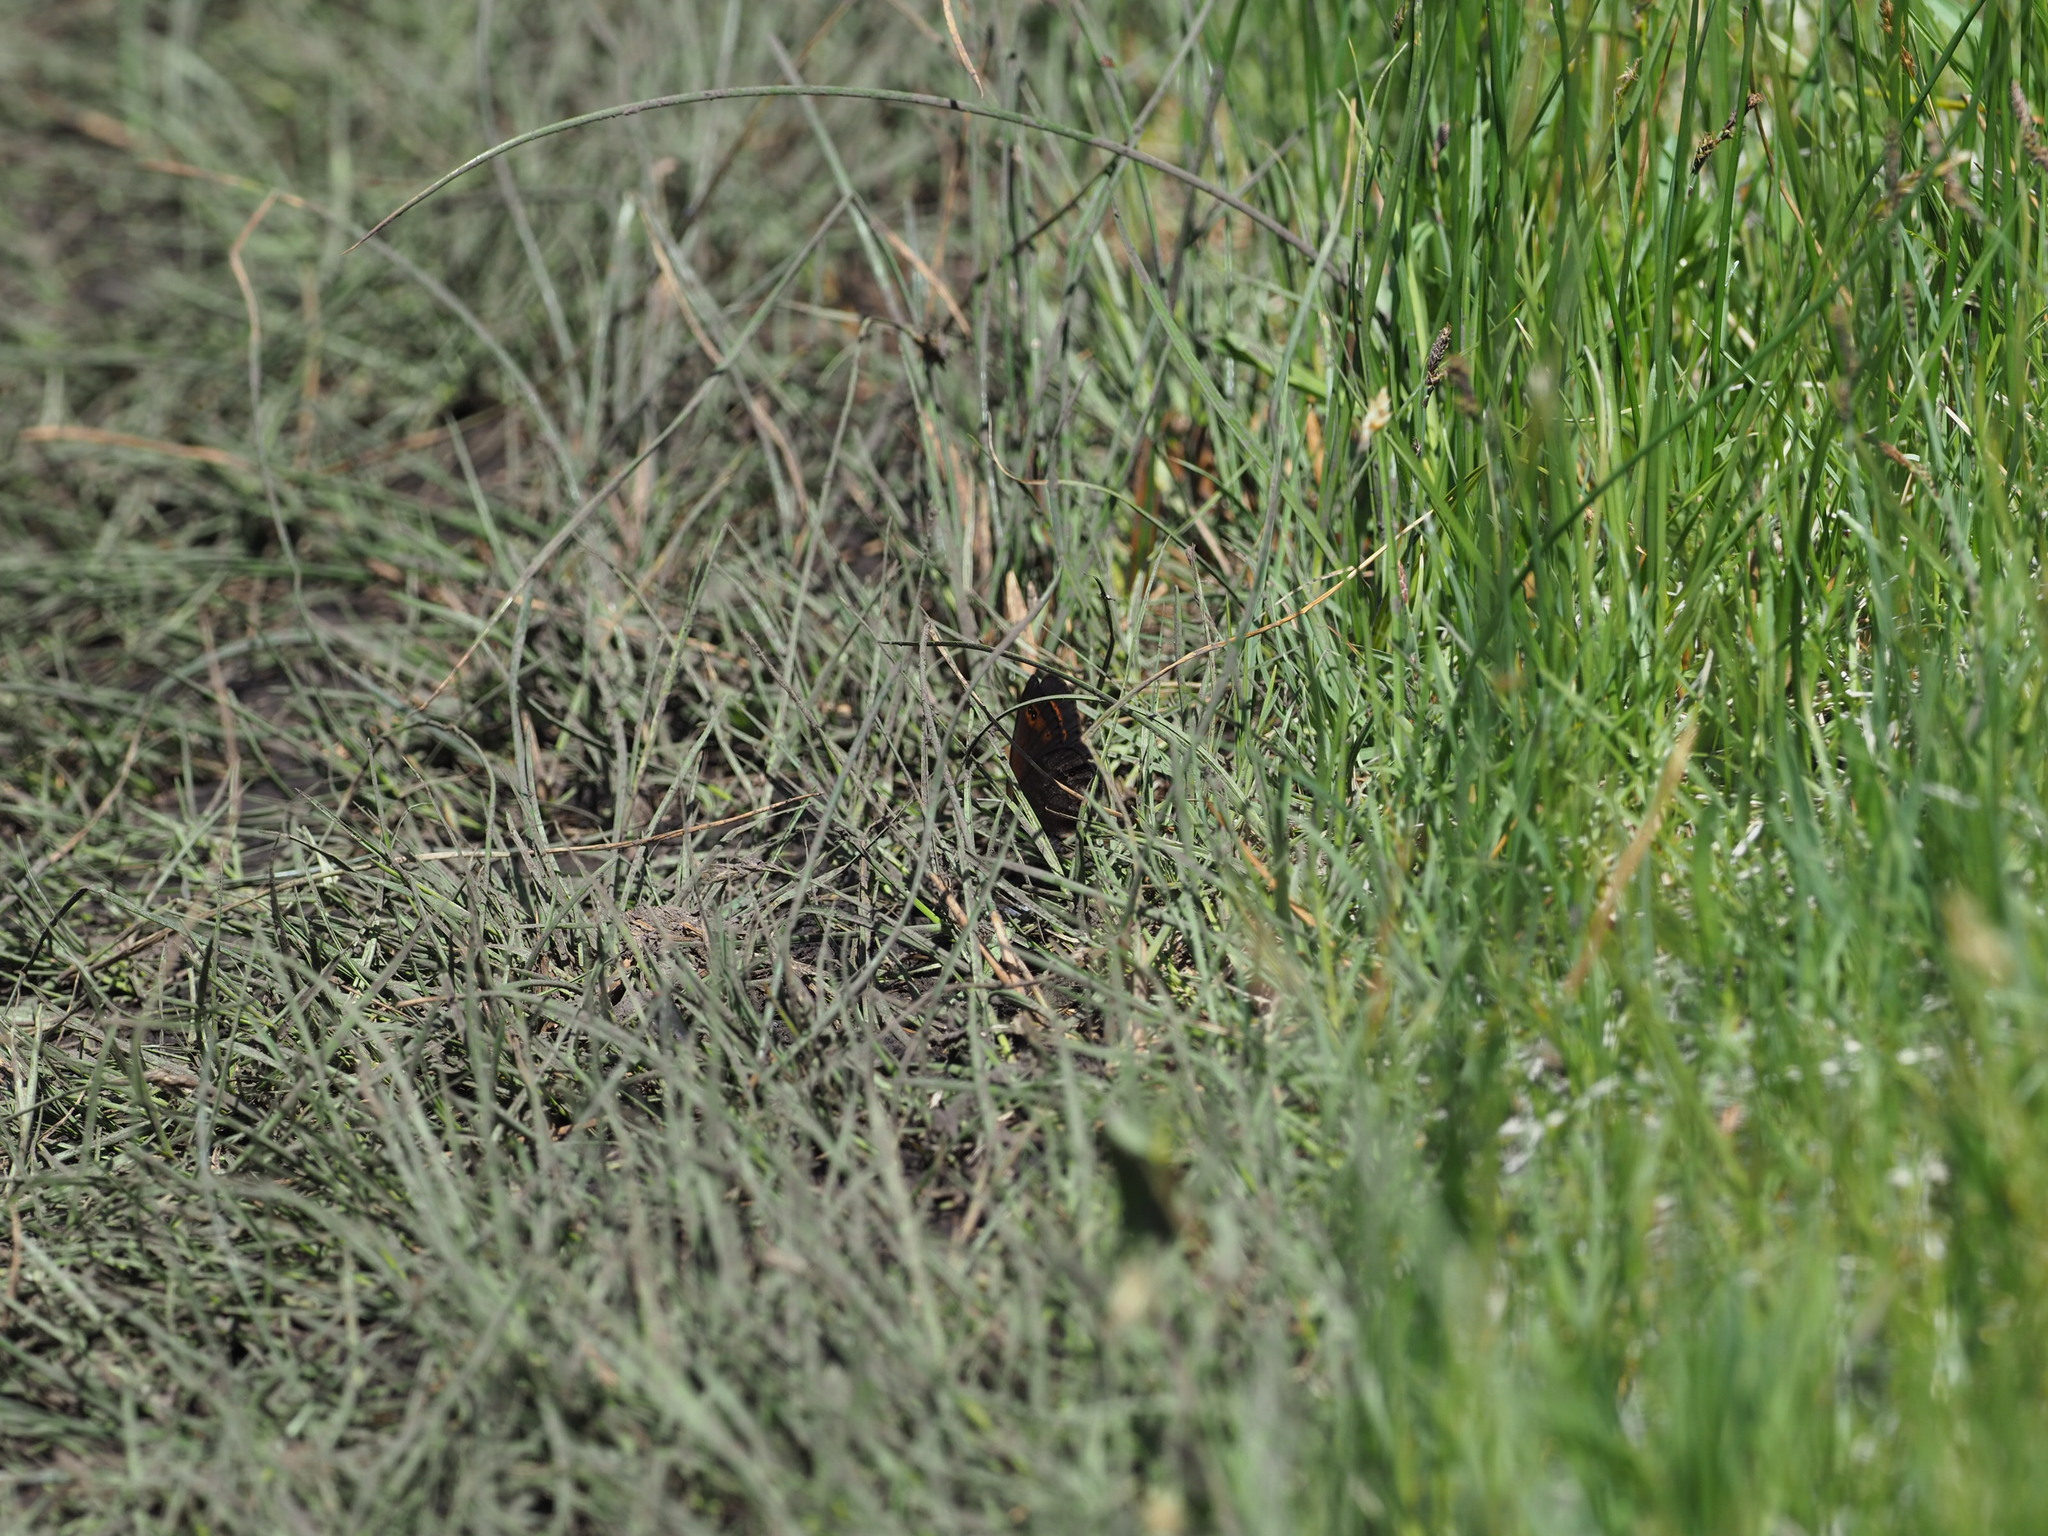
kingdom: Animalia
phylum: Arthropoda
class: Insecta
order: Lepidoptera
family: Nymphalidae
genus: Erebia
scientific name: Erebia epipsodea
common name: Common alpine
